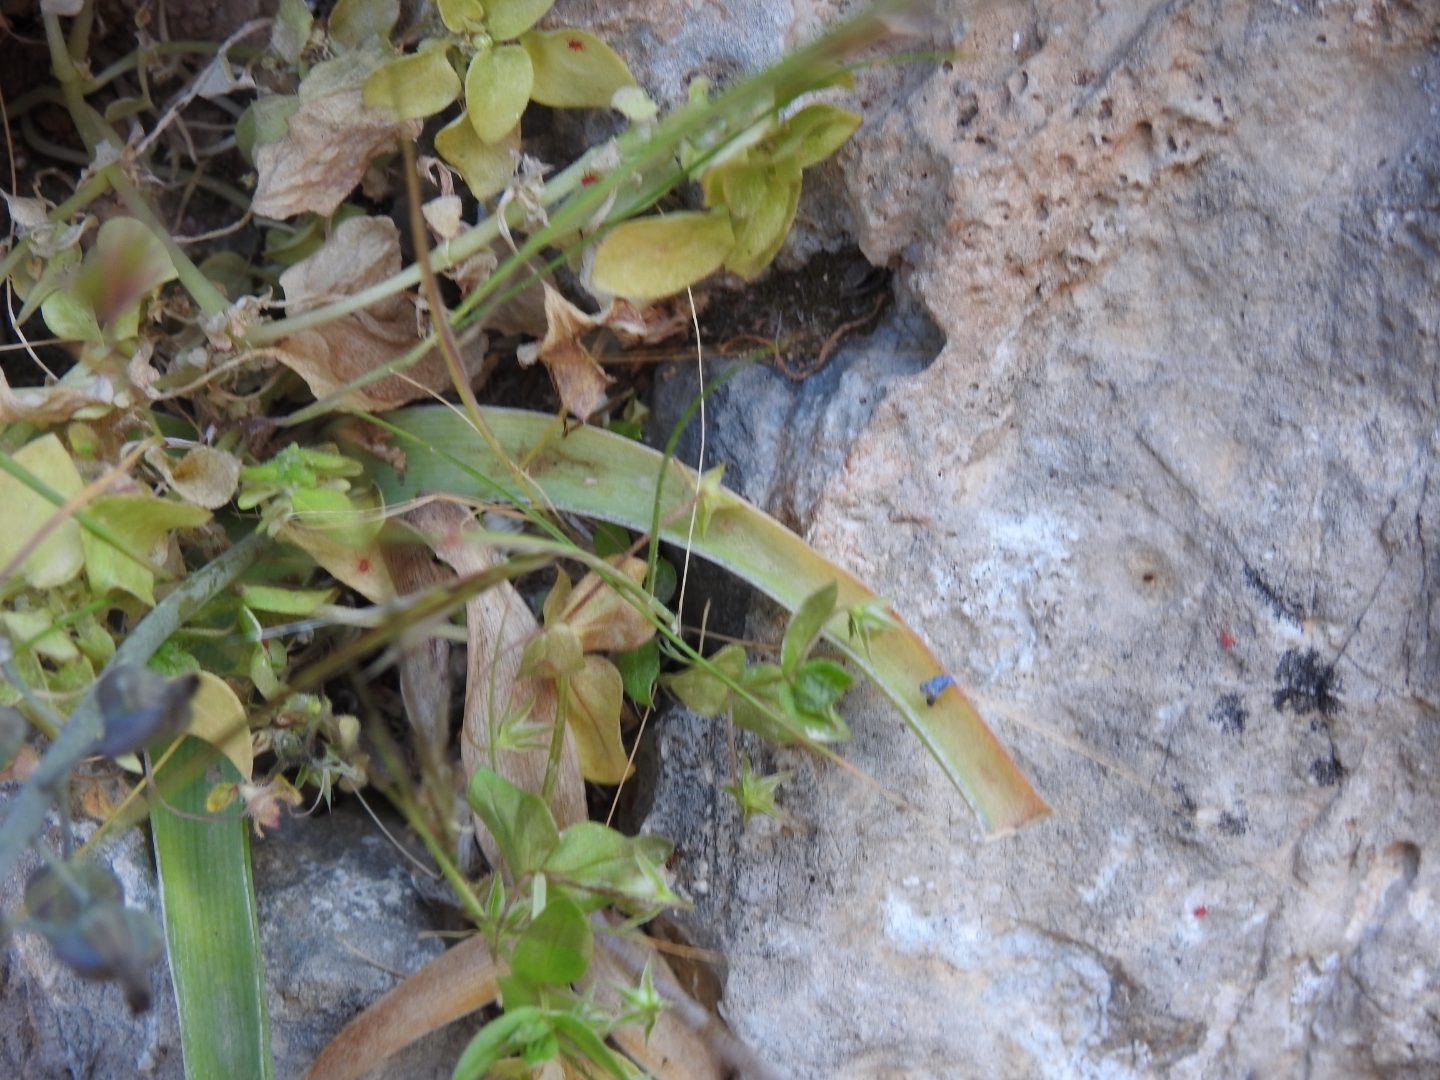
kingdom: Plantae
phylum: Tracheophyta
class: Liliopsida
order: Asparagales
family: Asparagaceae
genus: Muscari
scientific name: Muscari spreitzenhoferi
